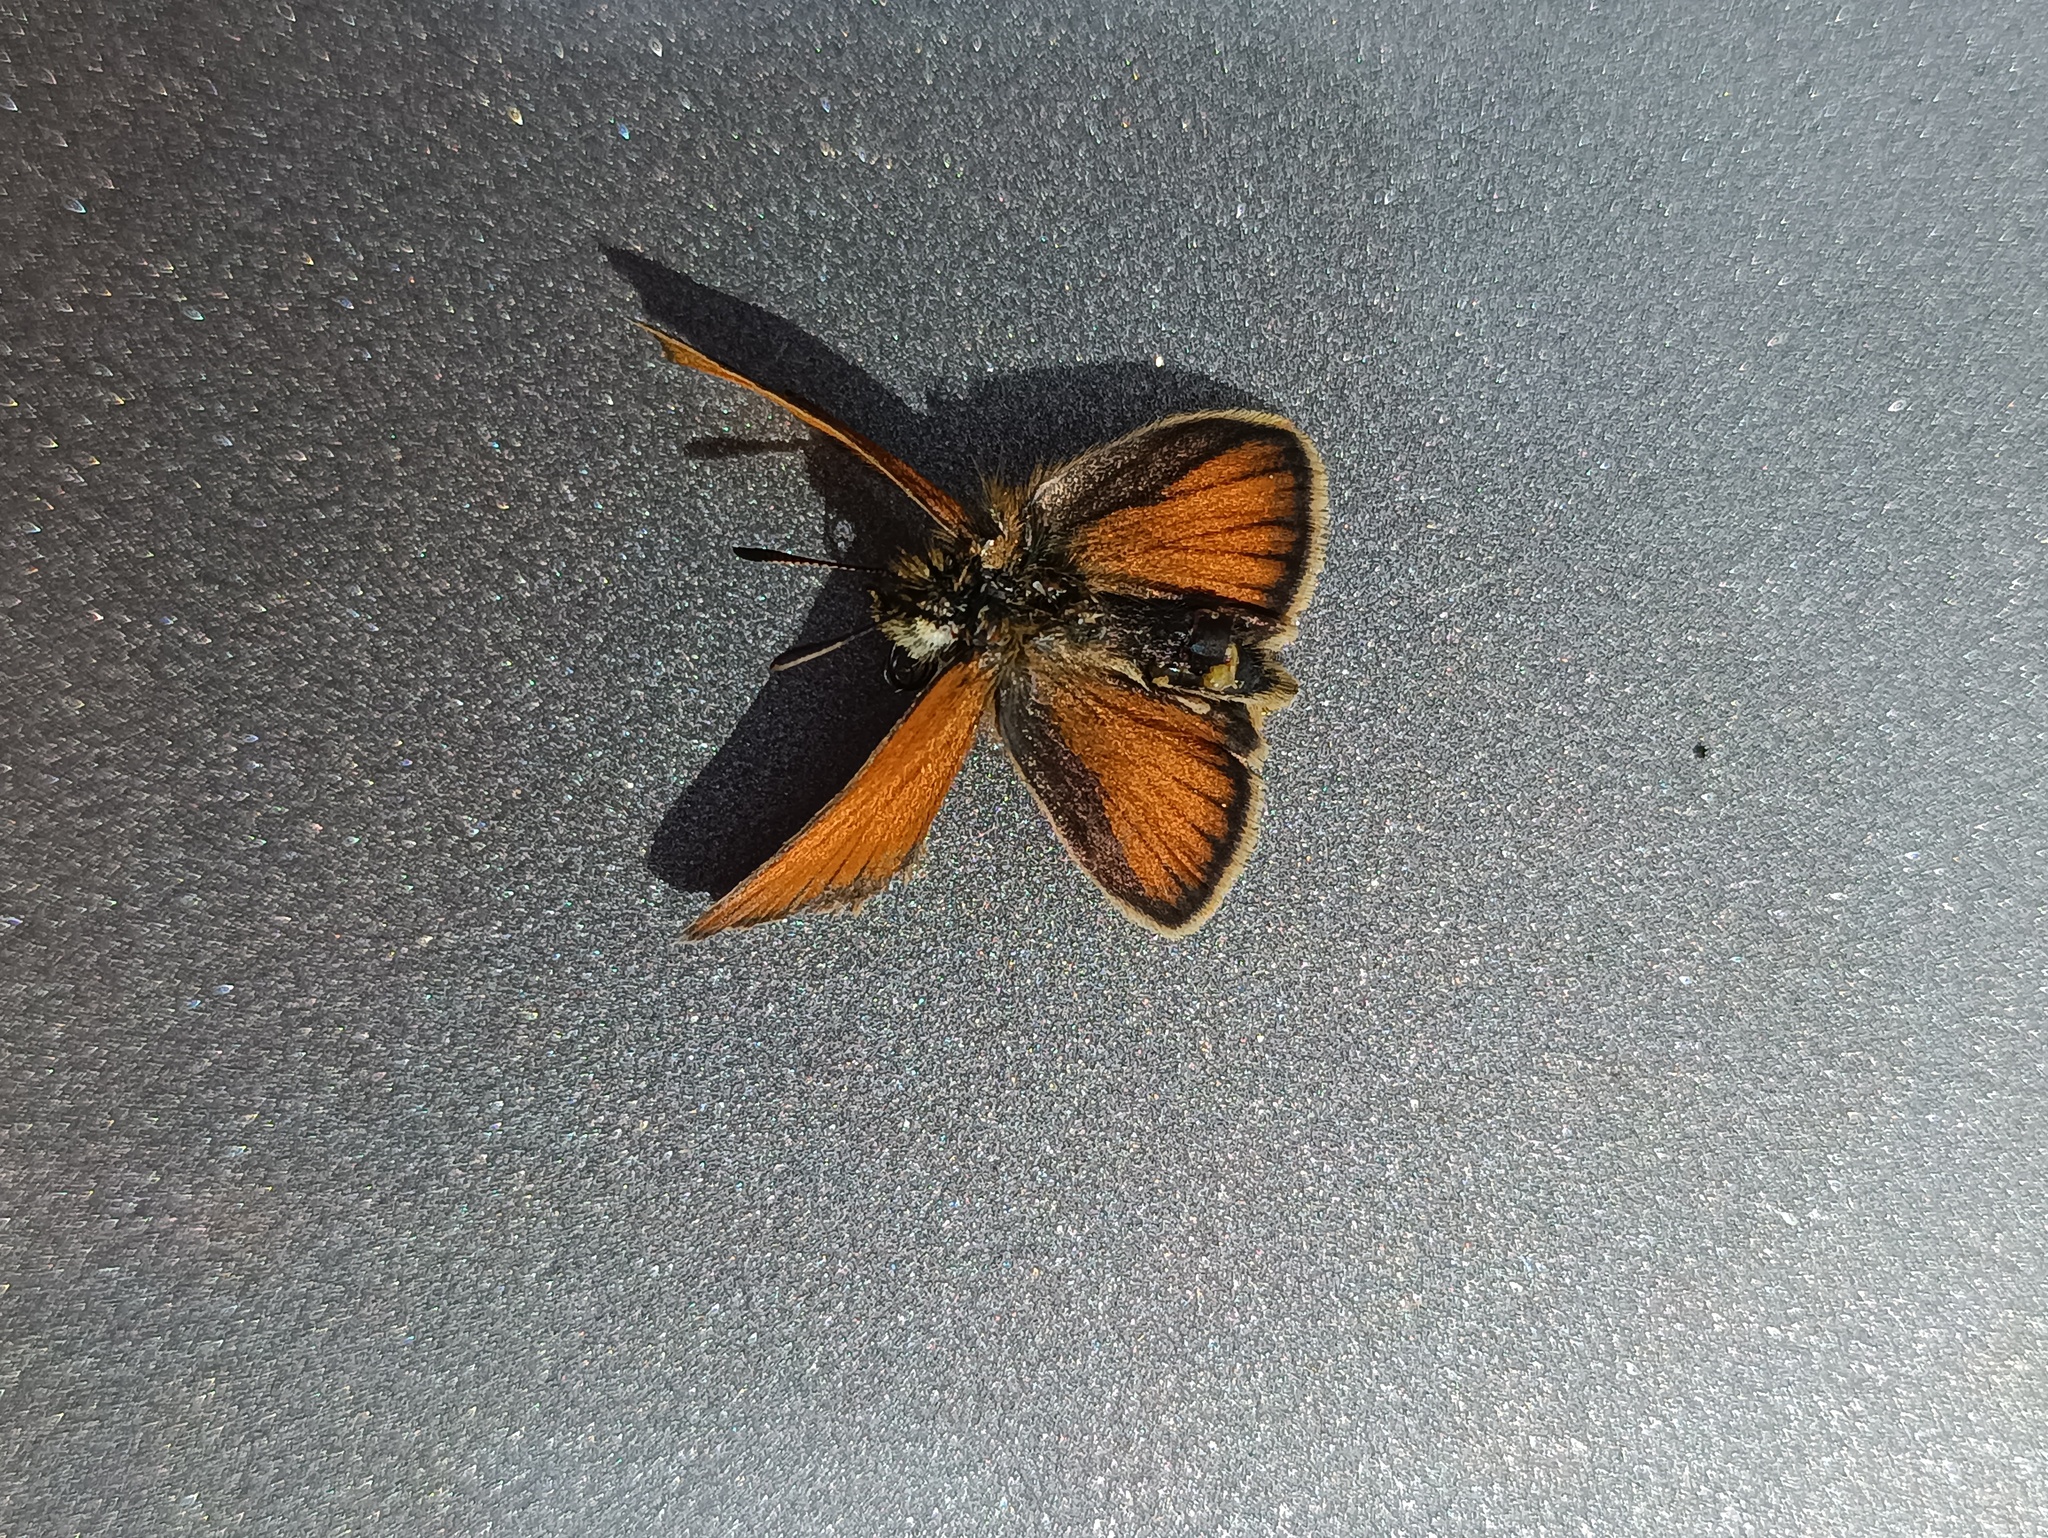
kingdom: Animalia
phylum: Arthropoda
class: Insecta
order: Lepidoptera
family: Hesperiidae
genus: Thymelicus
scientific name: Thymelicus lineola
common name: Essex skipper
